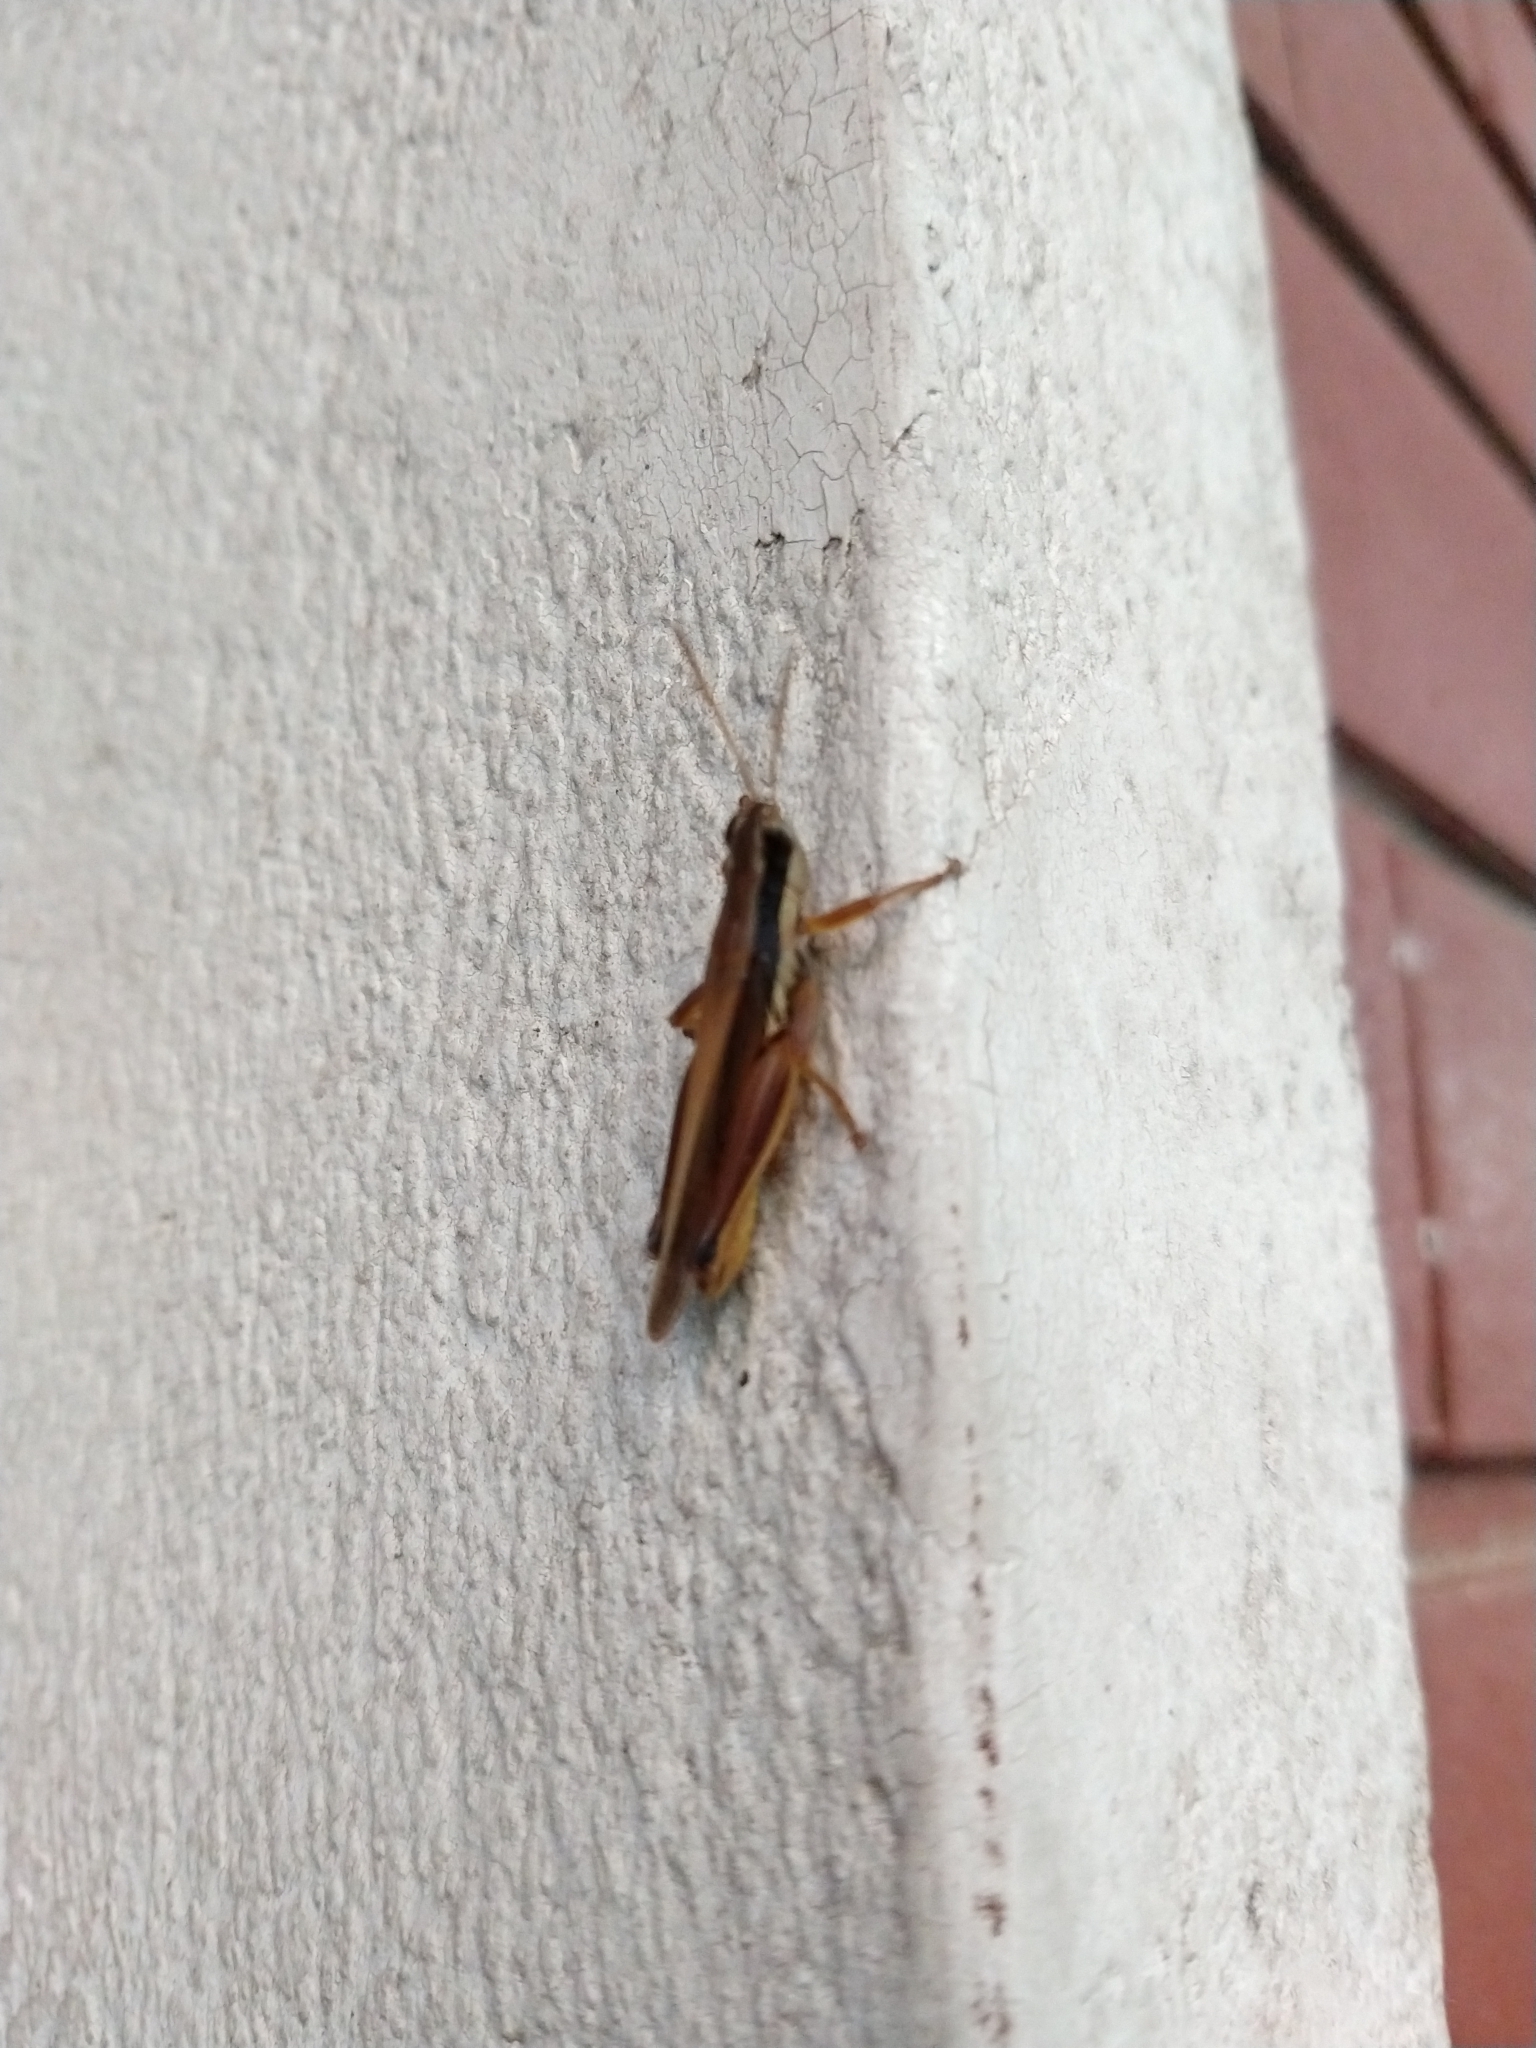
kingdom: Animalia
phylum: Arthropoda
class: Insecta
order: Orthoptera
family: Acrididae
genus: Scotussa
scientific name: Scotussa lemniscata
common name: Slender orange-legged grasshopper
